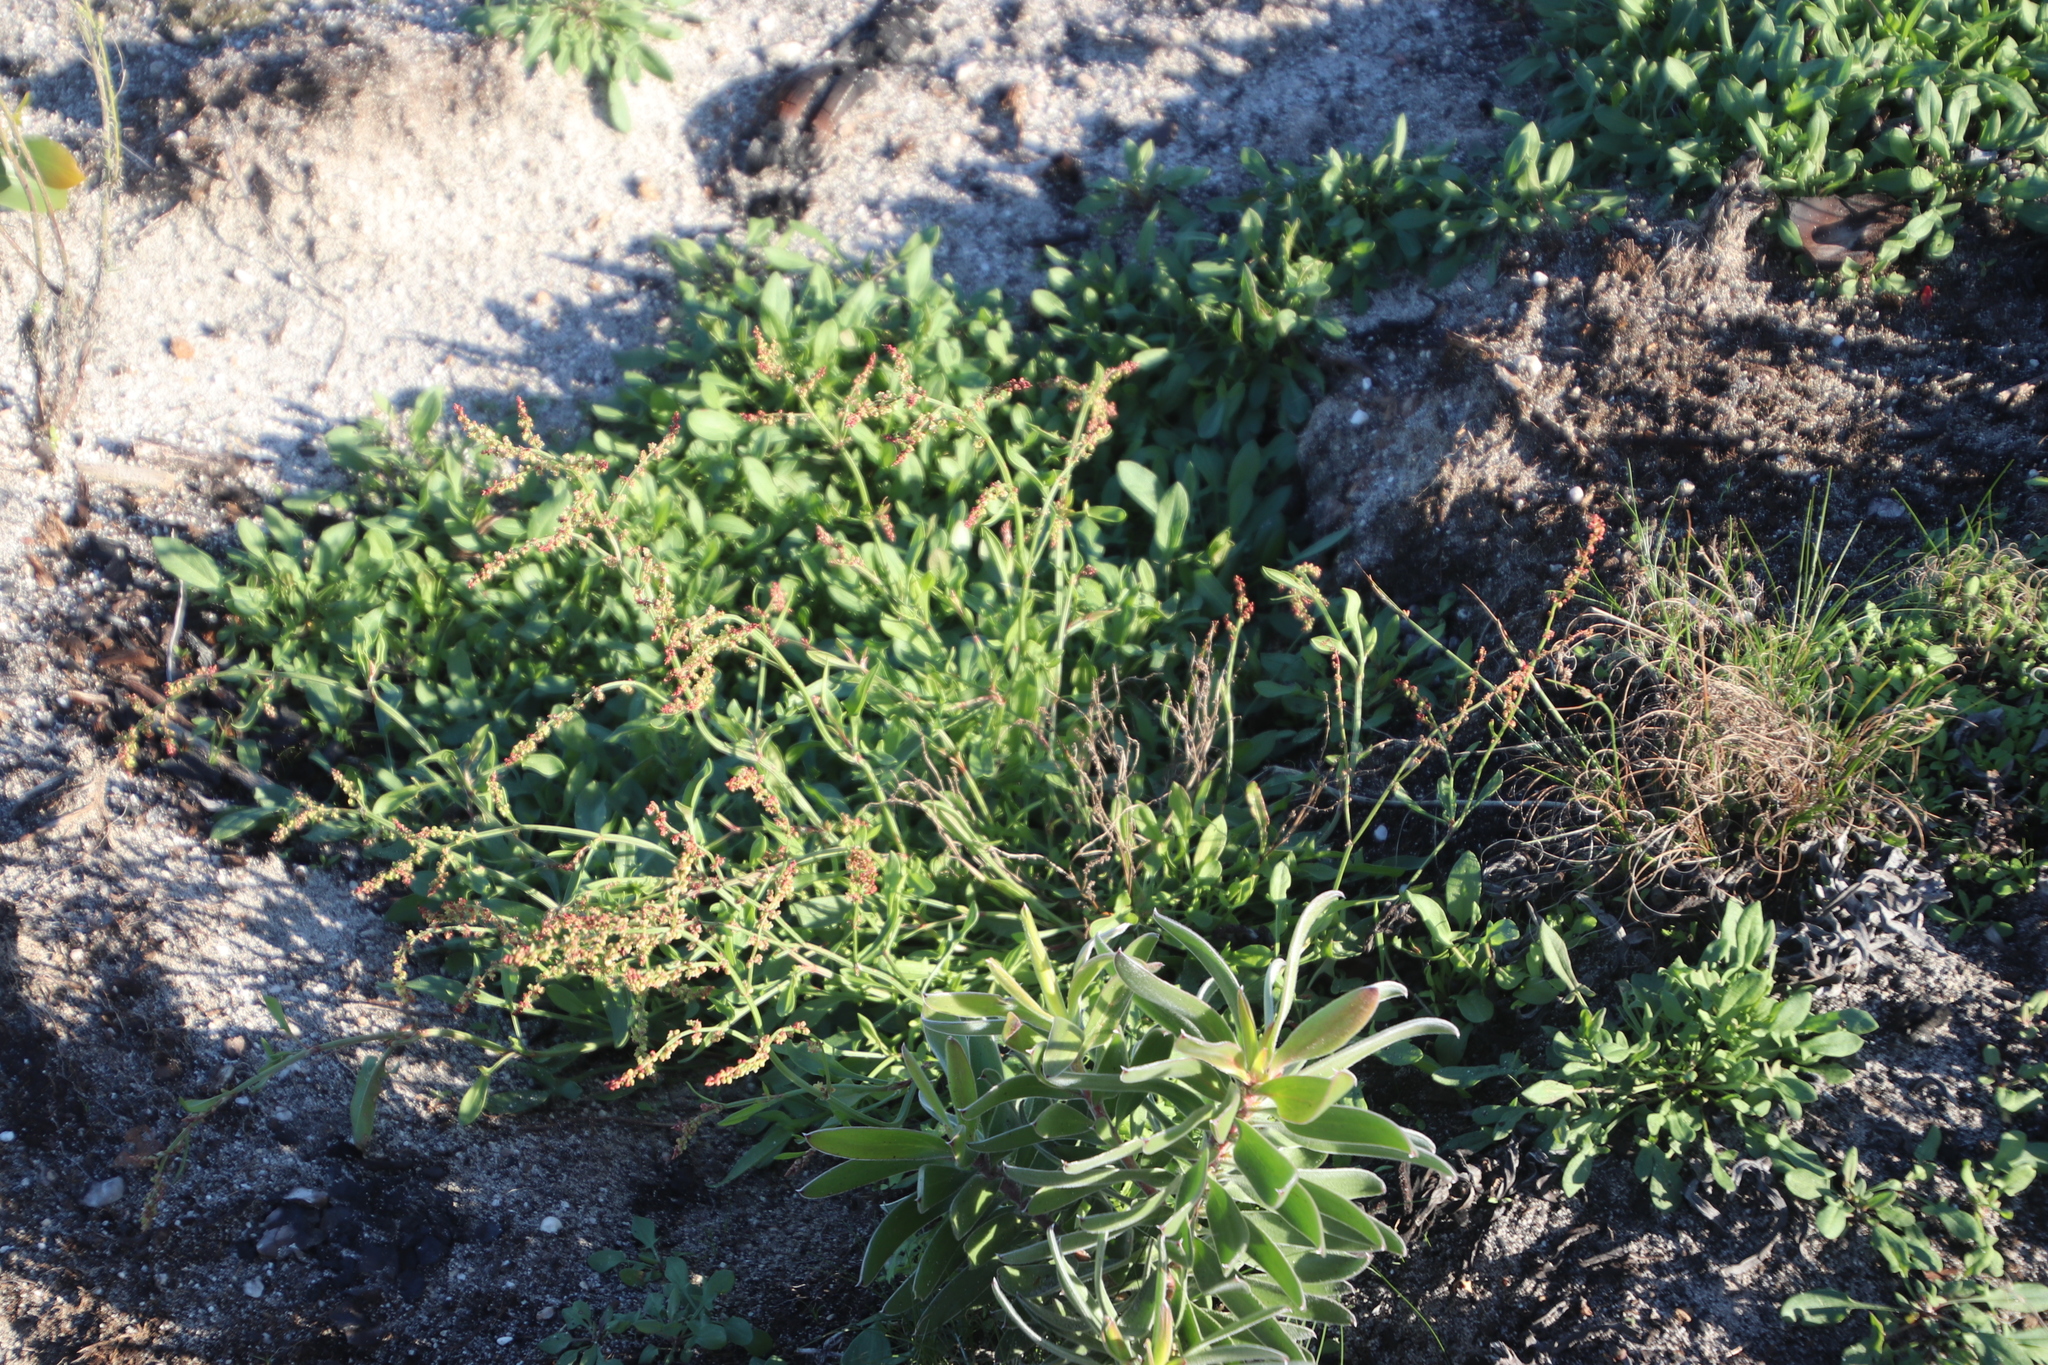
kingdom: Plantae
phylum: Tracheophyta
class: Magnoliopsida
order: Proteales
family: Proteaceae
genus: Leucadendron
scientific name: Leucadendron laureolum
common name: Golden sunshinebush
